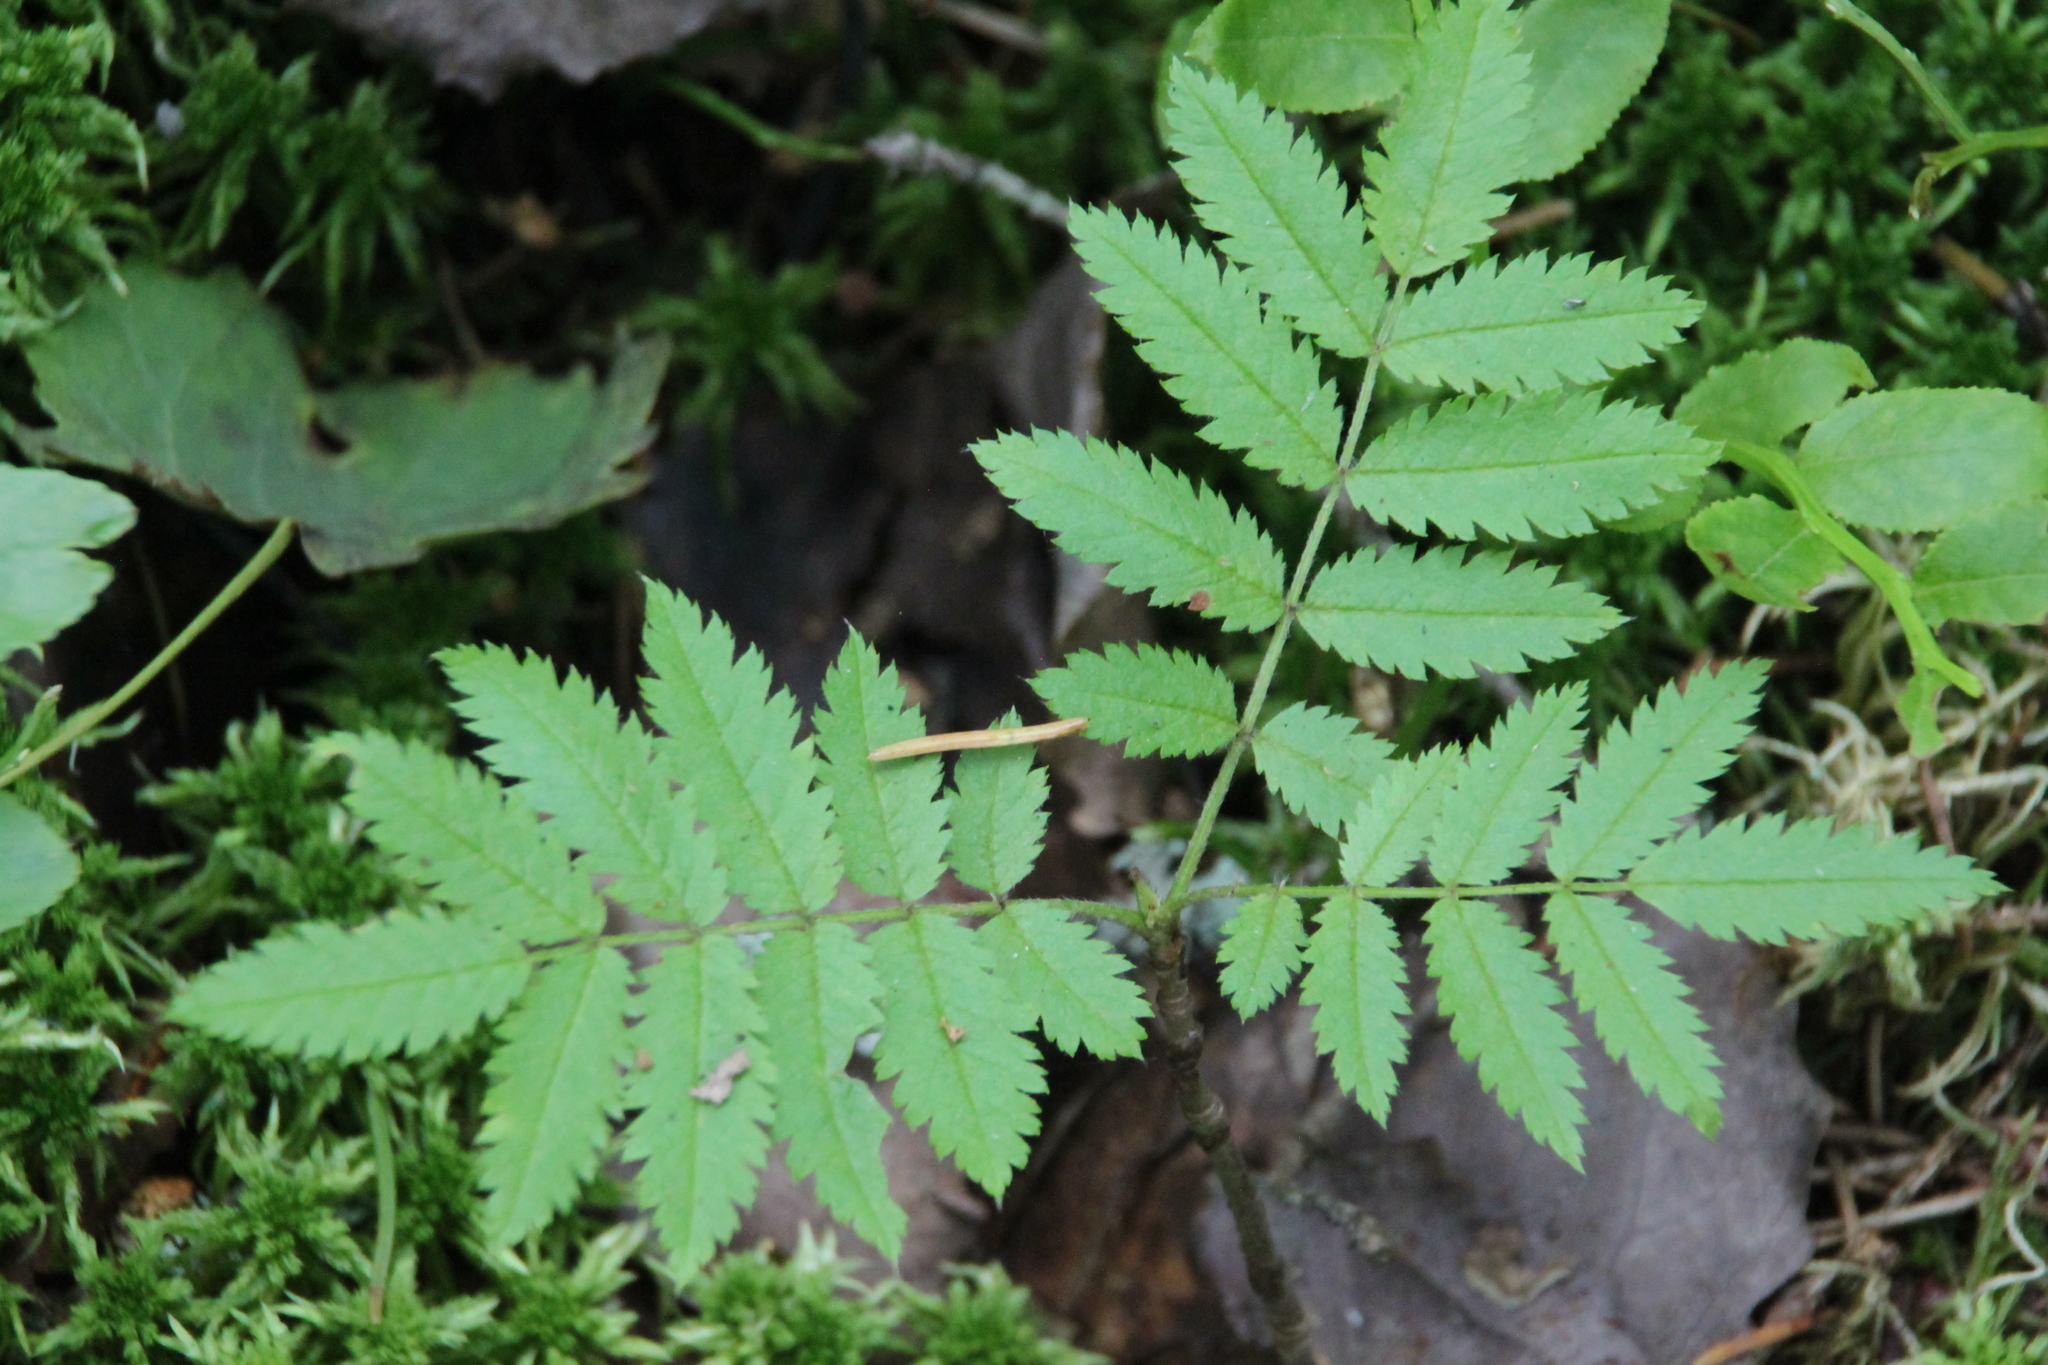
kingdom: Plantae
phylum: Tracheophyta
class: Magnoliopsida
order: Rosales
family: Rosaceae
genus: Sorbus
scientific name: Sorbus aucuparia
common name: Rowan
